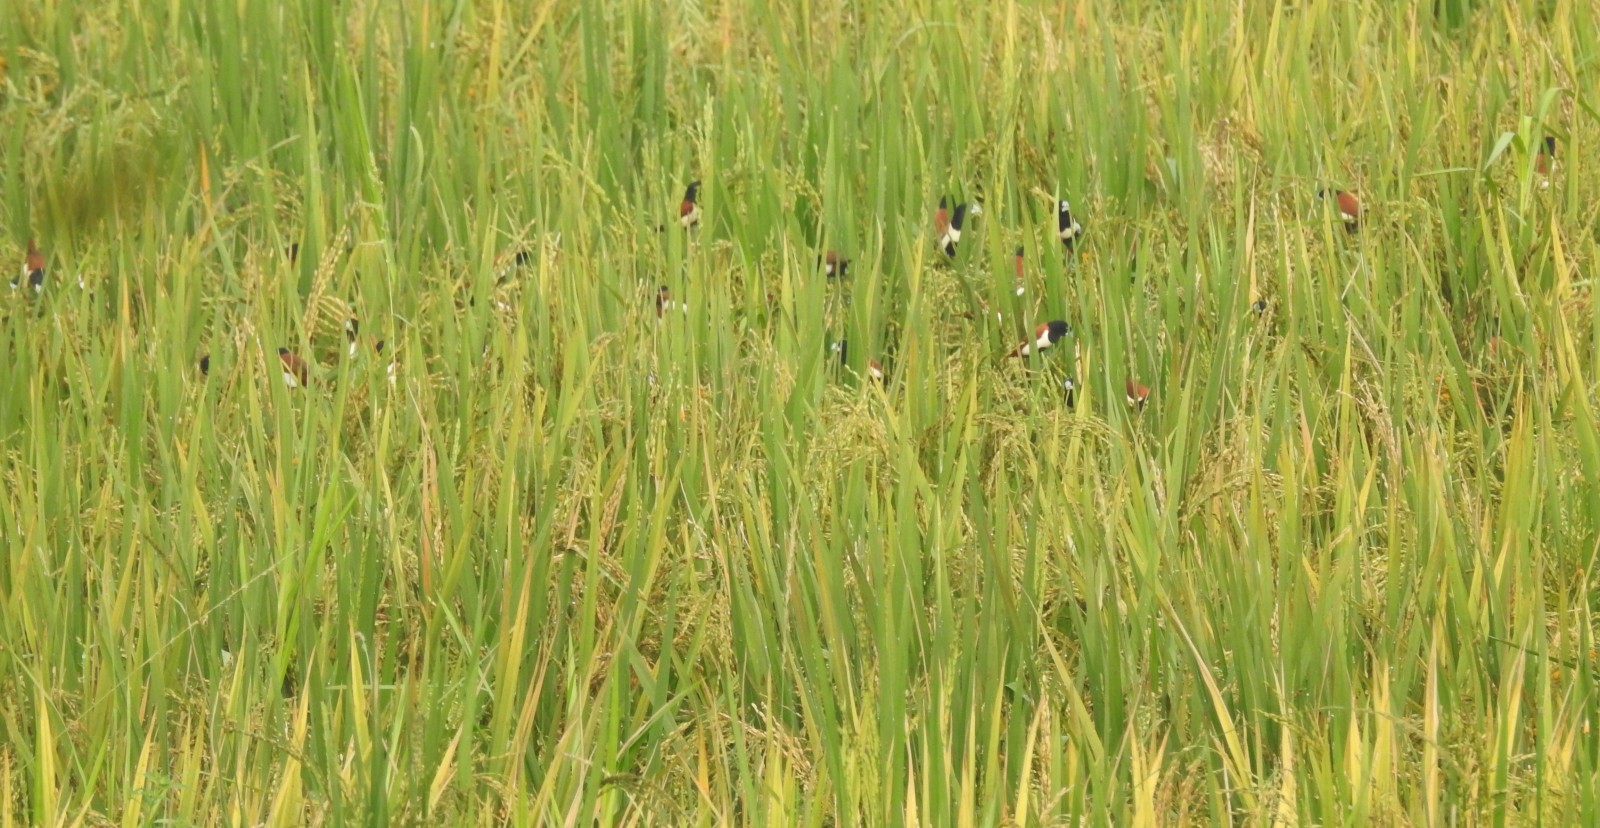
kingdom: Animalia
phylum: Chordata
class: Aves
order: Passeriformes
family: Estrildidae
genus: Lonchura
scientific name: Lonchura malacca
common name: Tricolored munia
